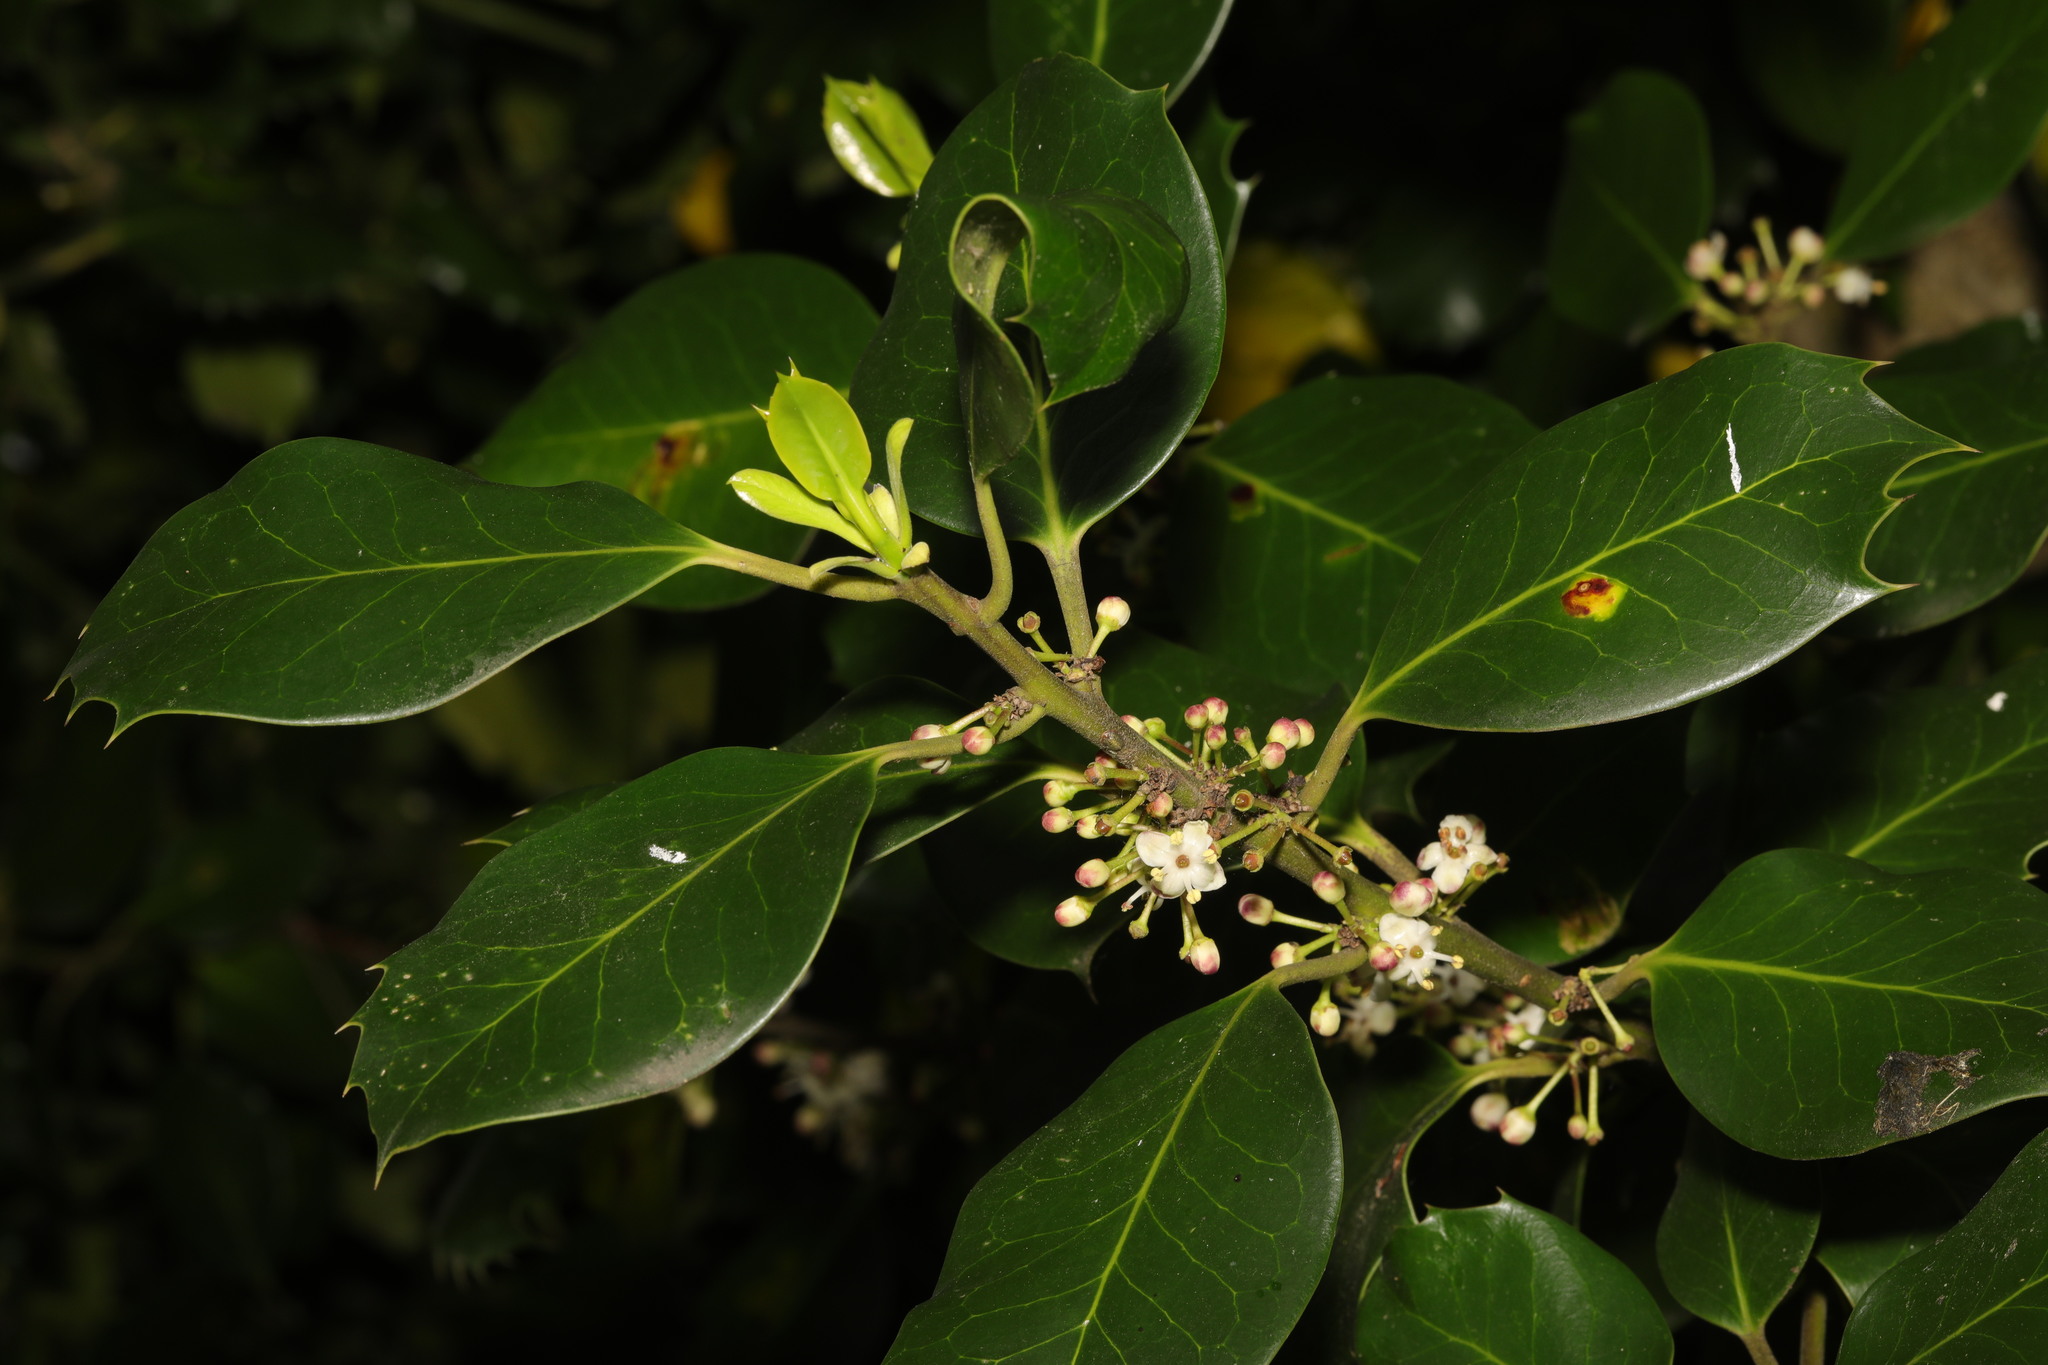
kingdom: Plantae
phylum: Tracheophyta
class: Magnoliopsida
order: Aquifoliales
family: Aquifoliaceae
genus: Ilex
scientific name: Ilex aquifolium
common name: English holly
